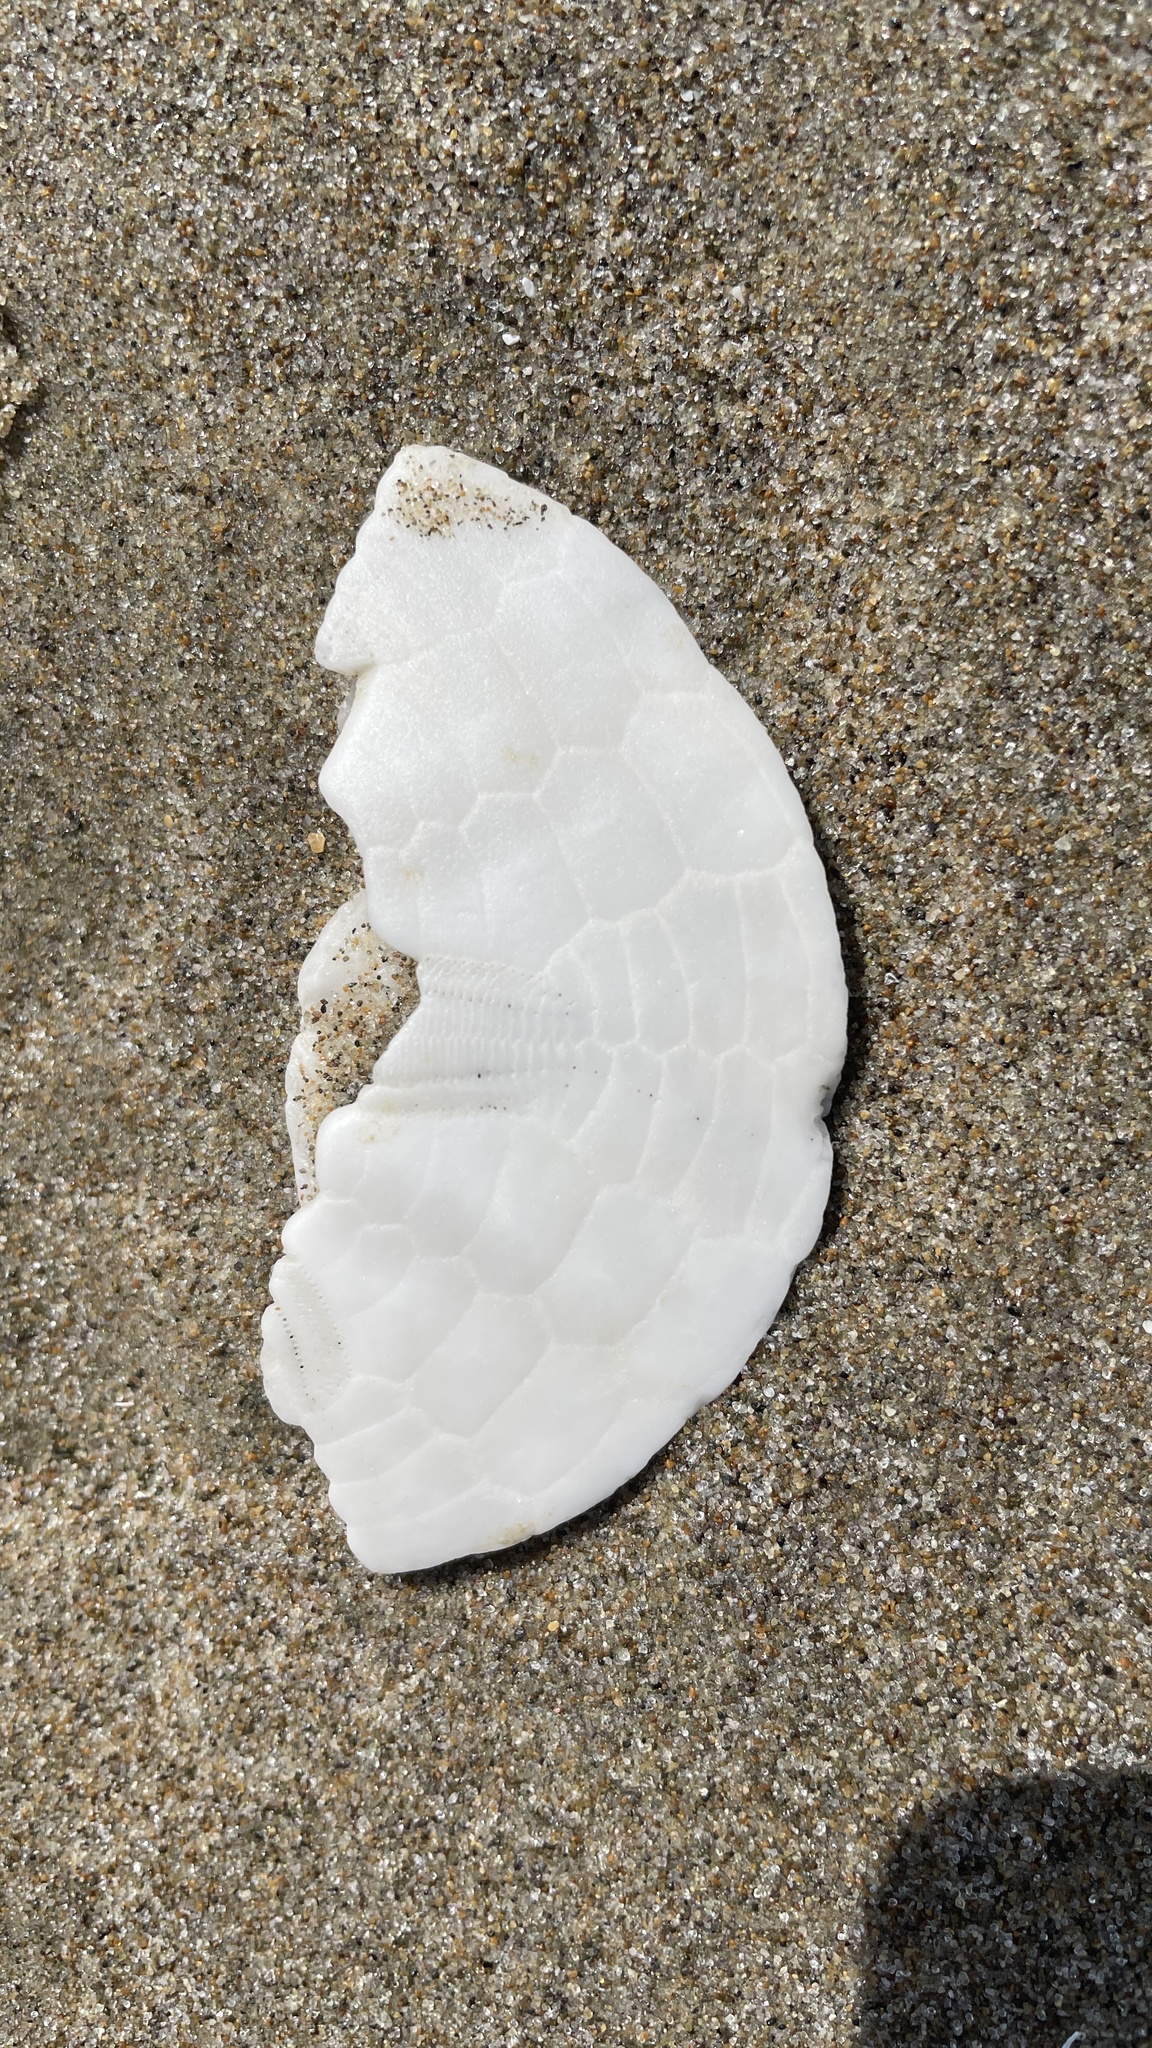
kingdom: Animalia
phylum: Echinodermata
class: Echinoidea
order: Echinolampadacea
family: Dendrasteridae
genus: Dendraster
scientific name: Dendraster excentricus
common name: Eccentric sand dollar sea urchin
